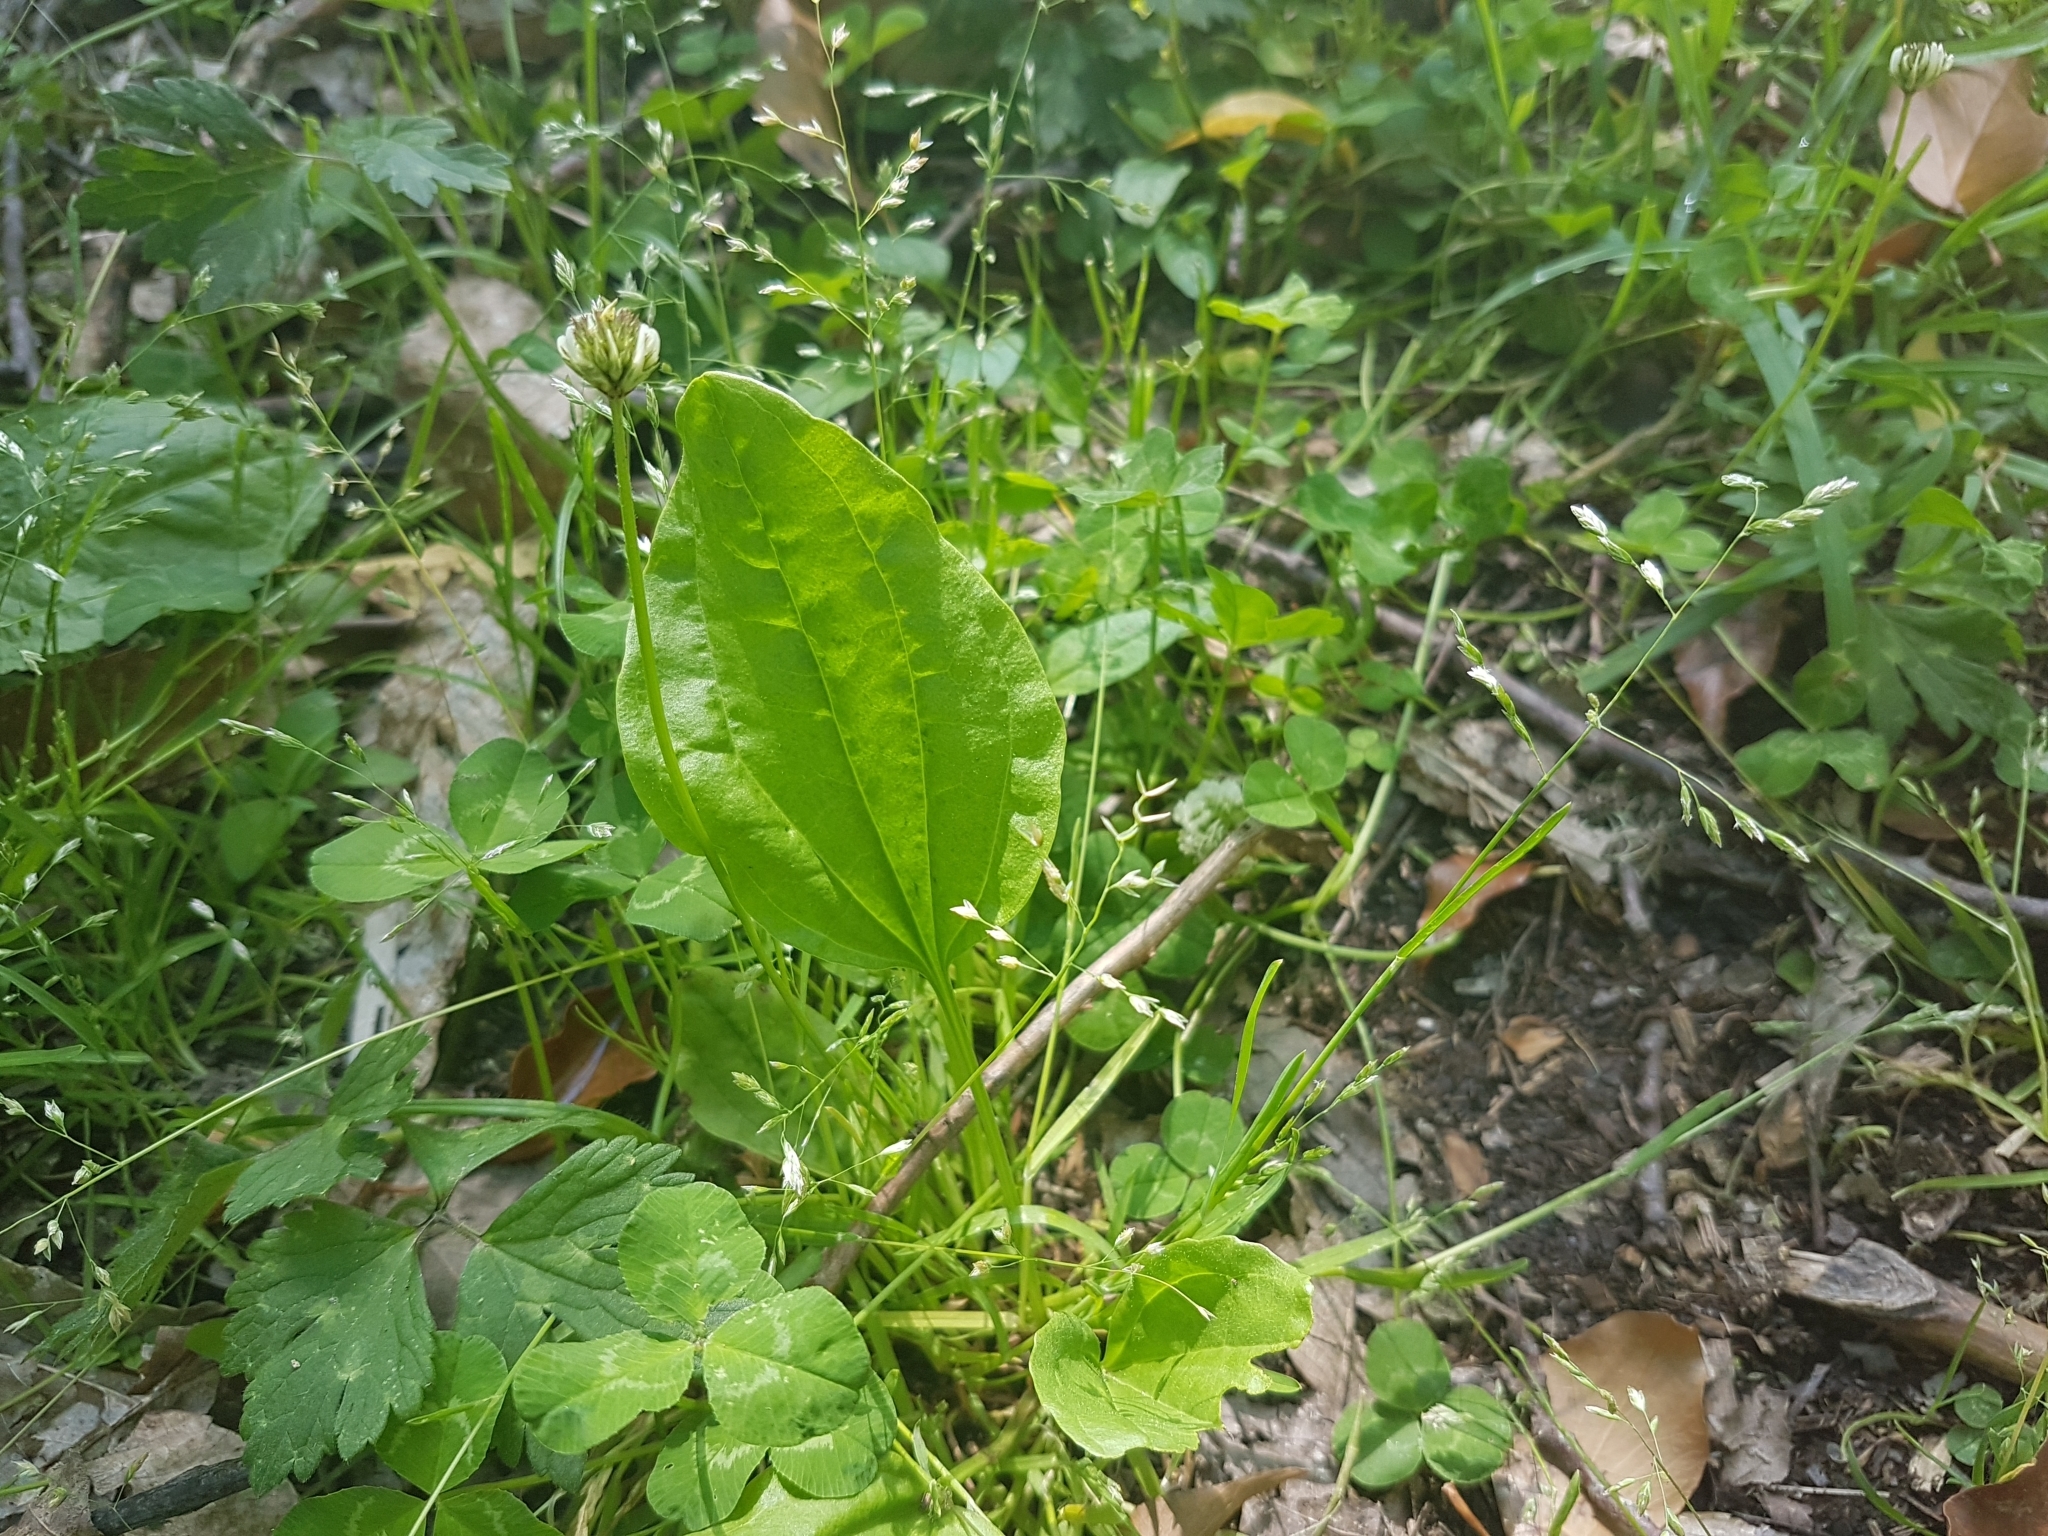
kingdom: Plantae
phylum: Tracheophyta
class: Magnoliopsida
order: Lamiales
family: Plantaginaceae
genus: Plantago
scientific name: Plantago major
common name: Common plantain
